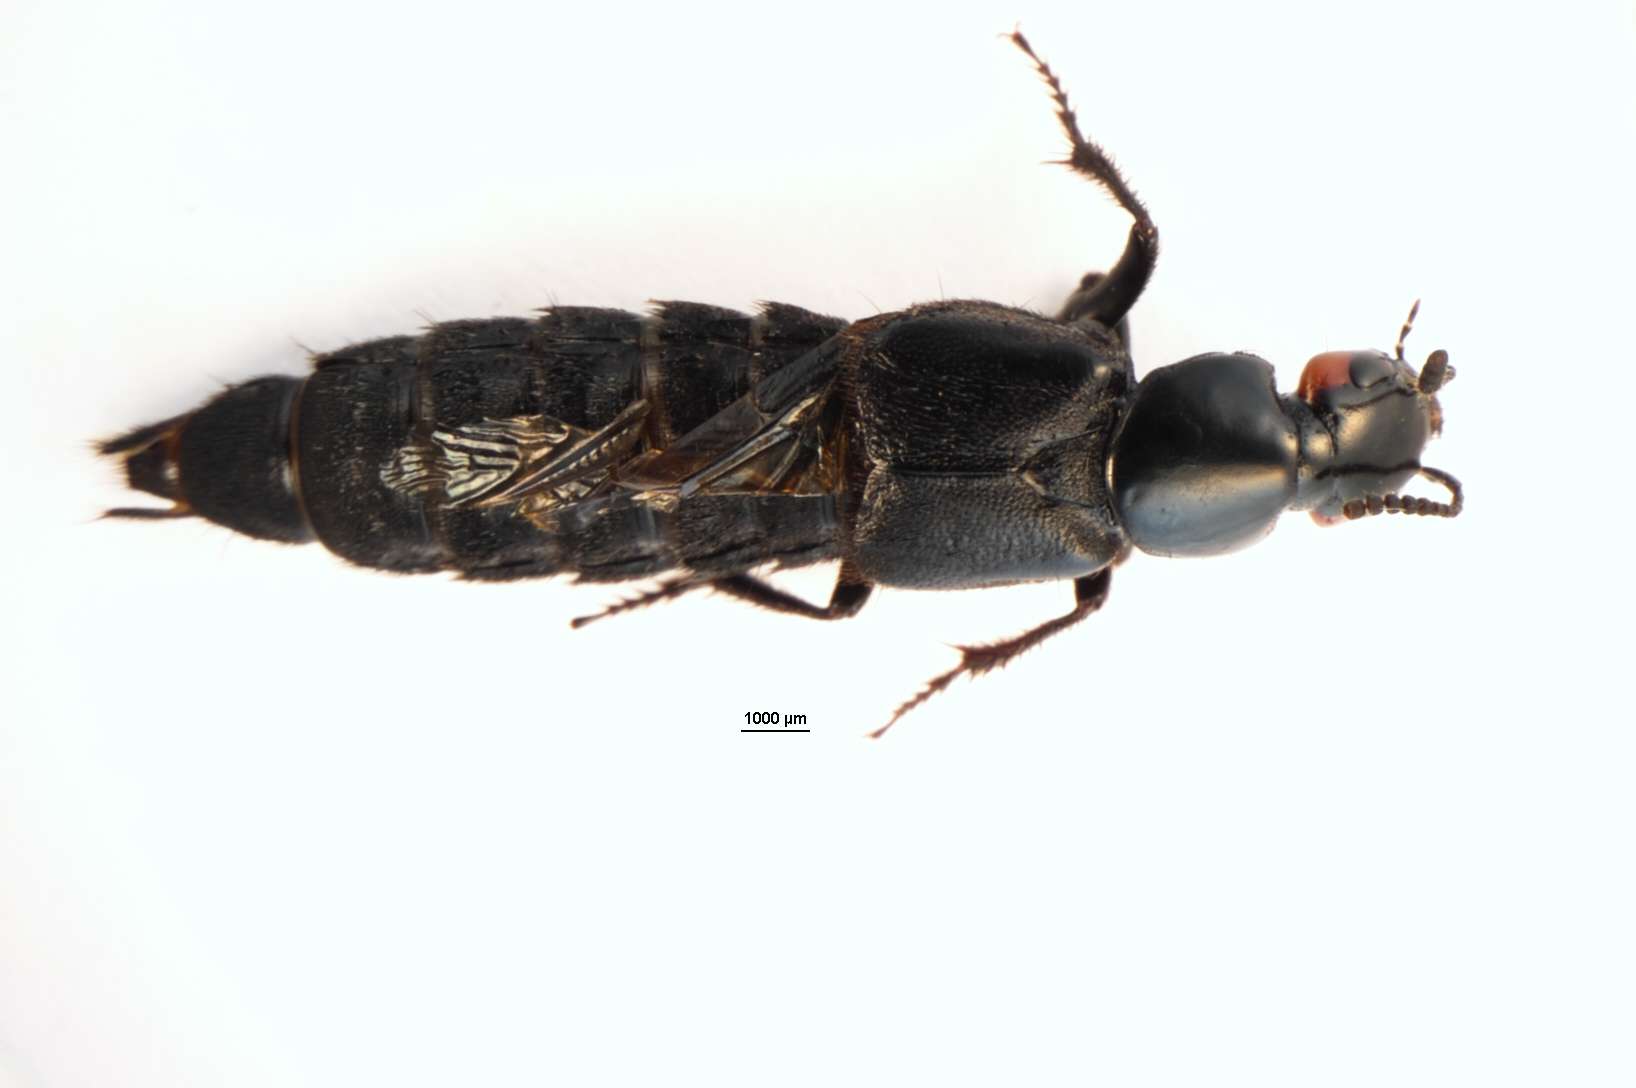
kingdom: Animalia
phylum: Arthropoda
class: Insecta
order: Coleoptera
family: Staphylinidae
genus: Creophilus
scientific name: Creophilus oculatus
